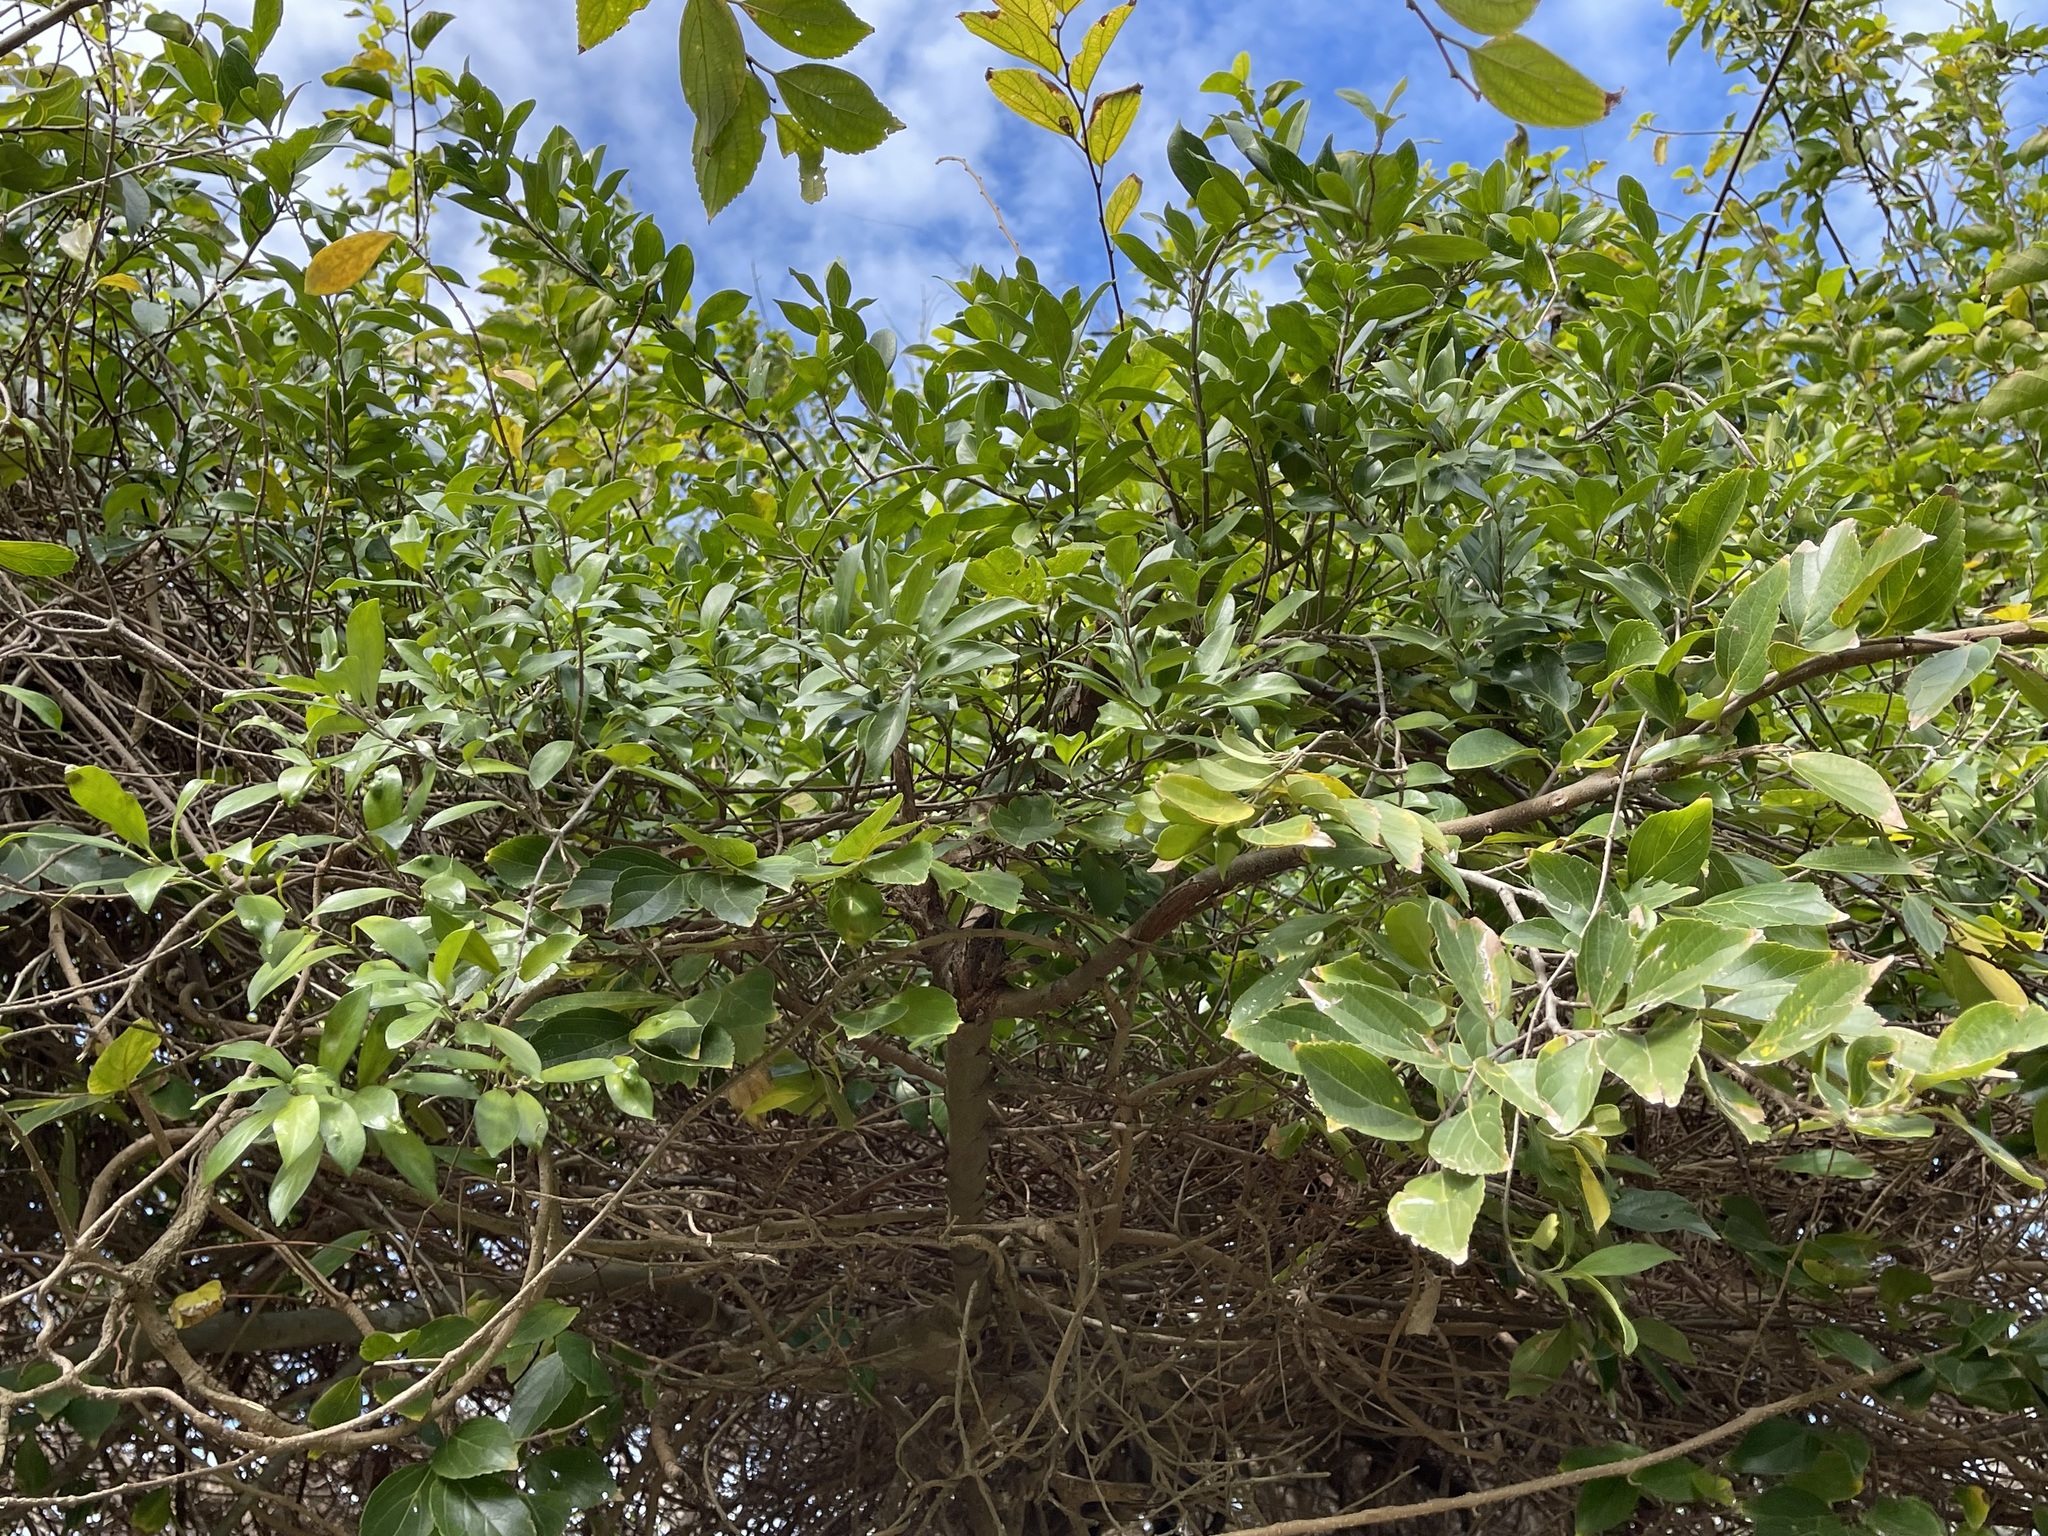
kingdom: Plantae
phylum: Tracheophyta
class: Magnoliopsida
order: Gentianales
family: Apocynaceae
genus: Gymnema
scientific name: Gymnema sylvestre
